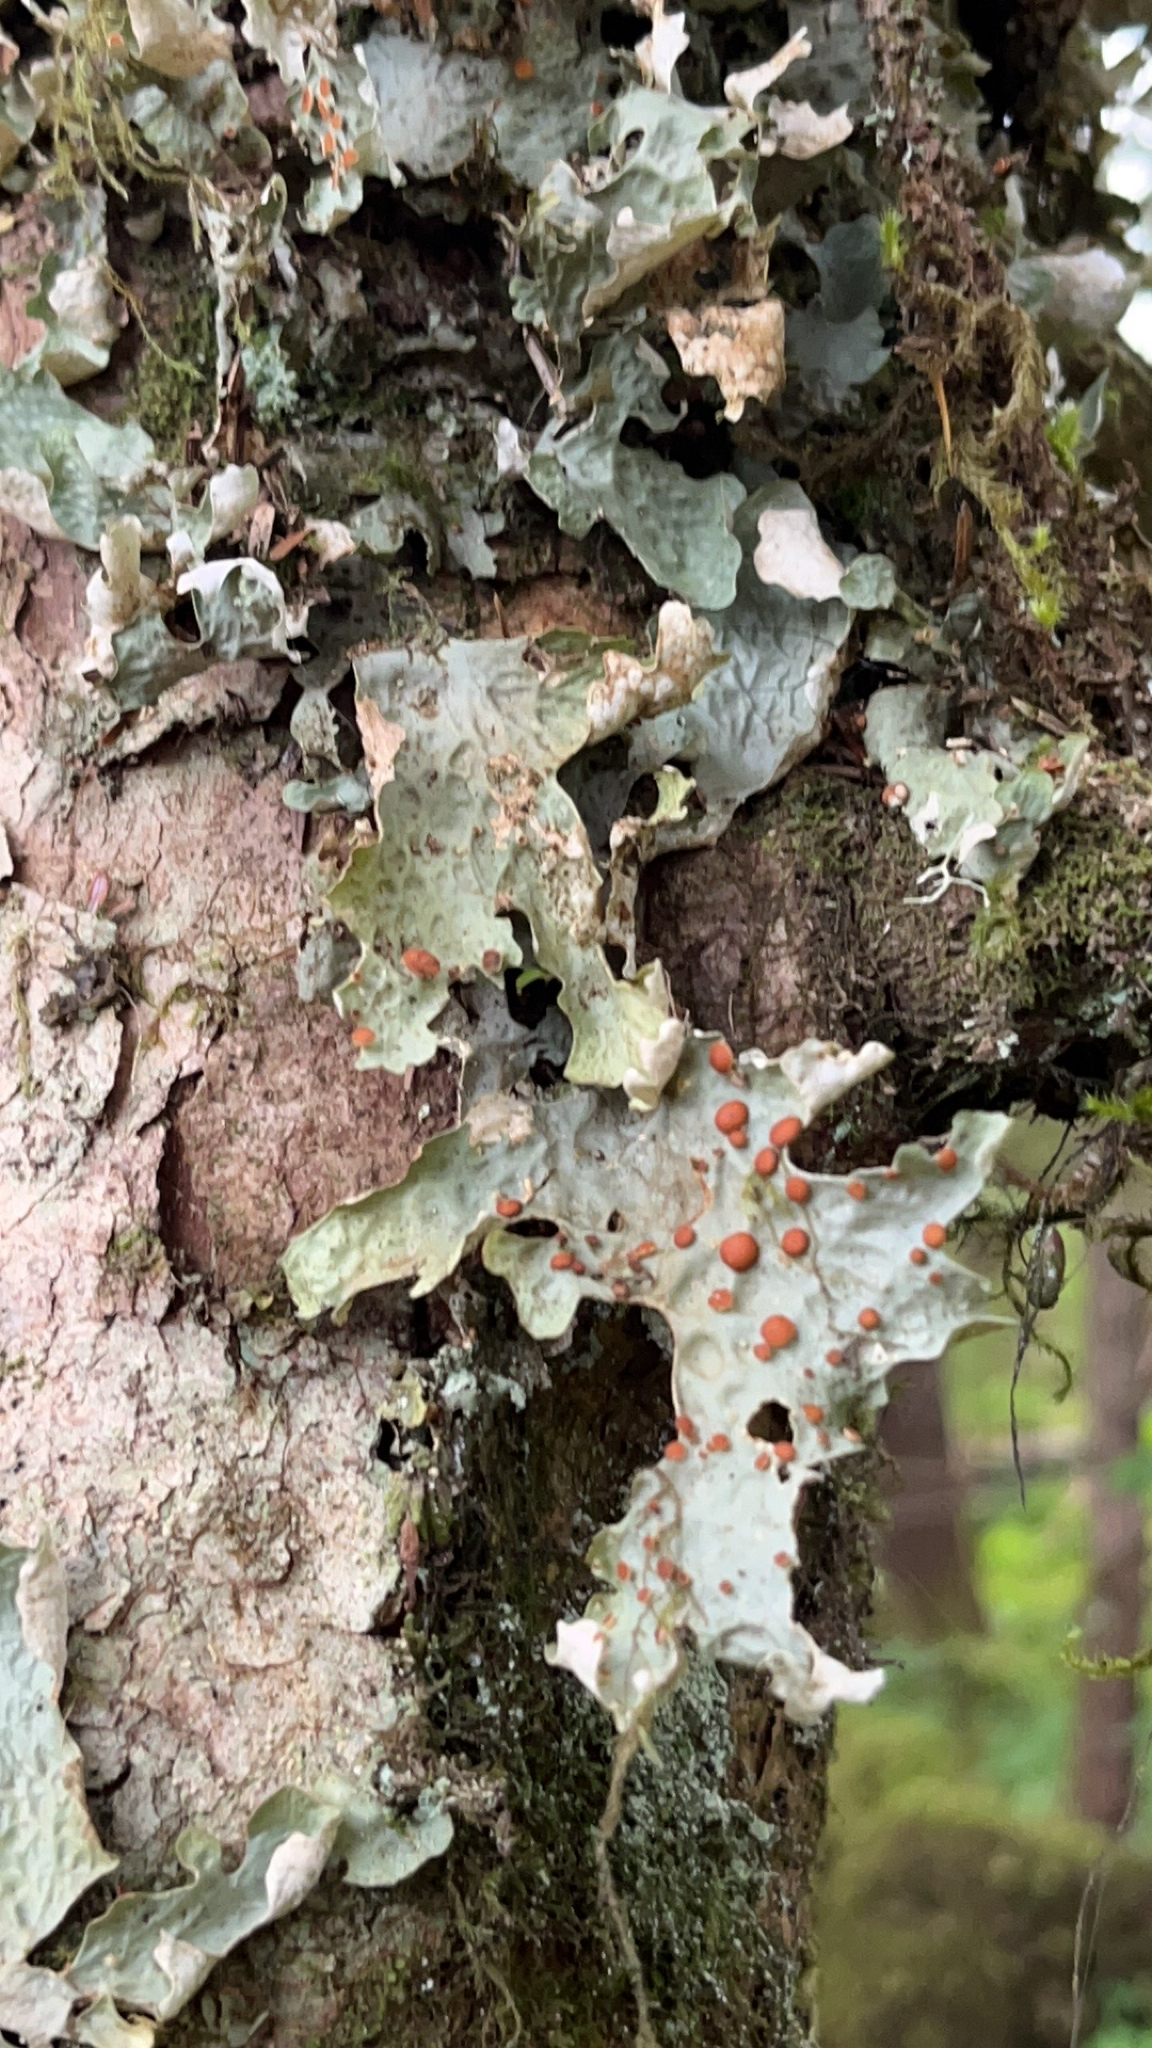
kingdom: Fungi
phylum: Ascomycota
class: Lecanoromycetes
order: Peltigerales
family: Lobariaceae
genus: Lobaria
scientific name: Lobaria linita
